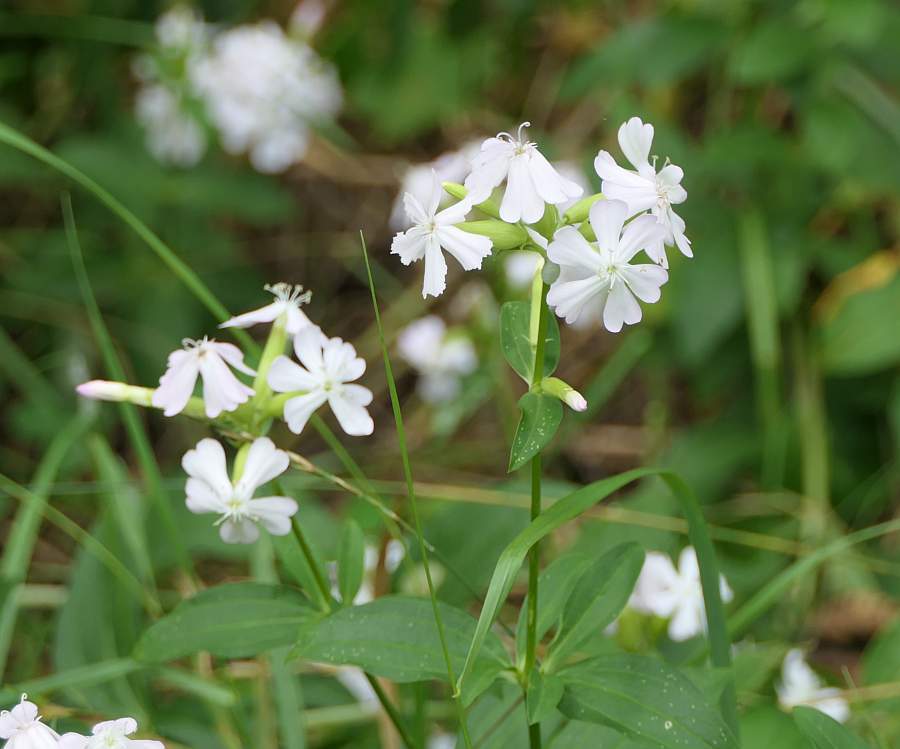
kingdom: Plantae
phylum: Tracheophyta
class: Magnoliopsida
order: Caryophyllales
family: Caryophyllaceae
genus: Saponaria
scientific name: Saponaria officinalis
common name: Soapwort
